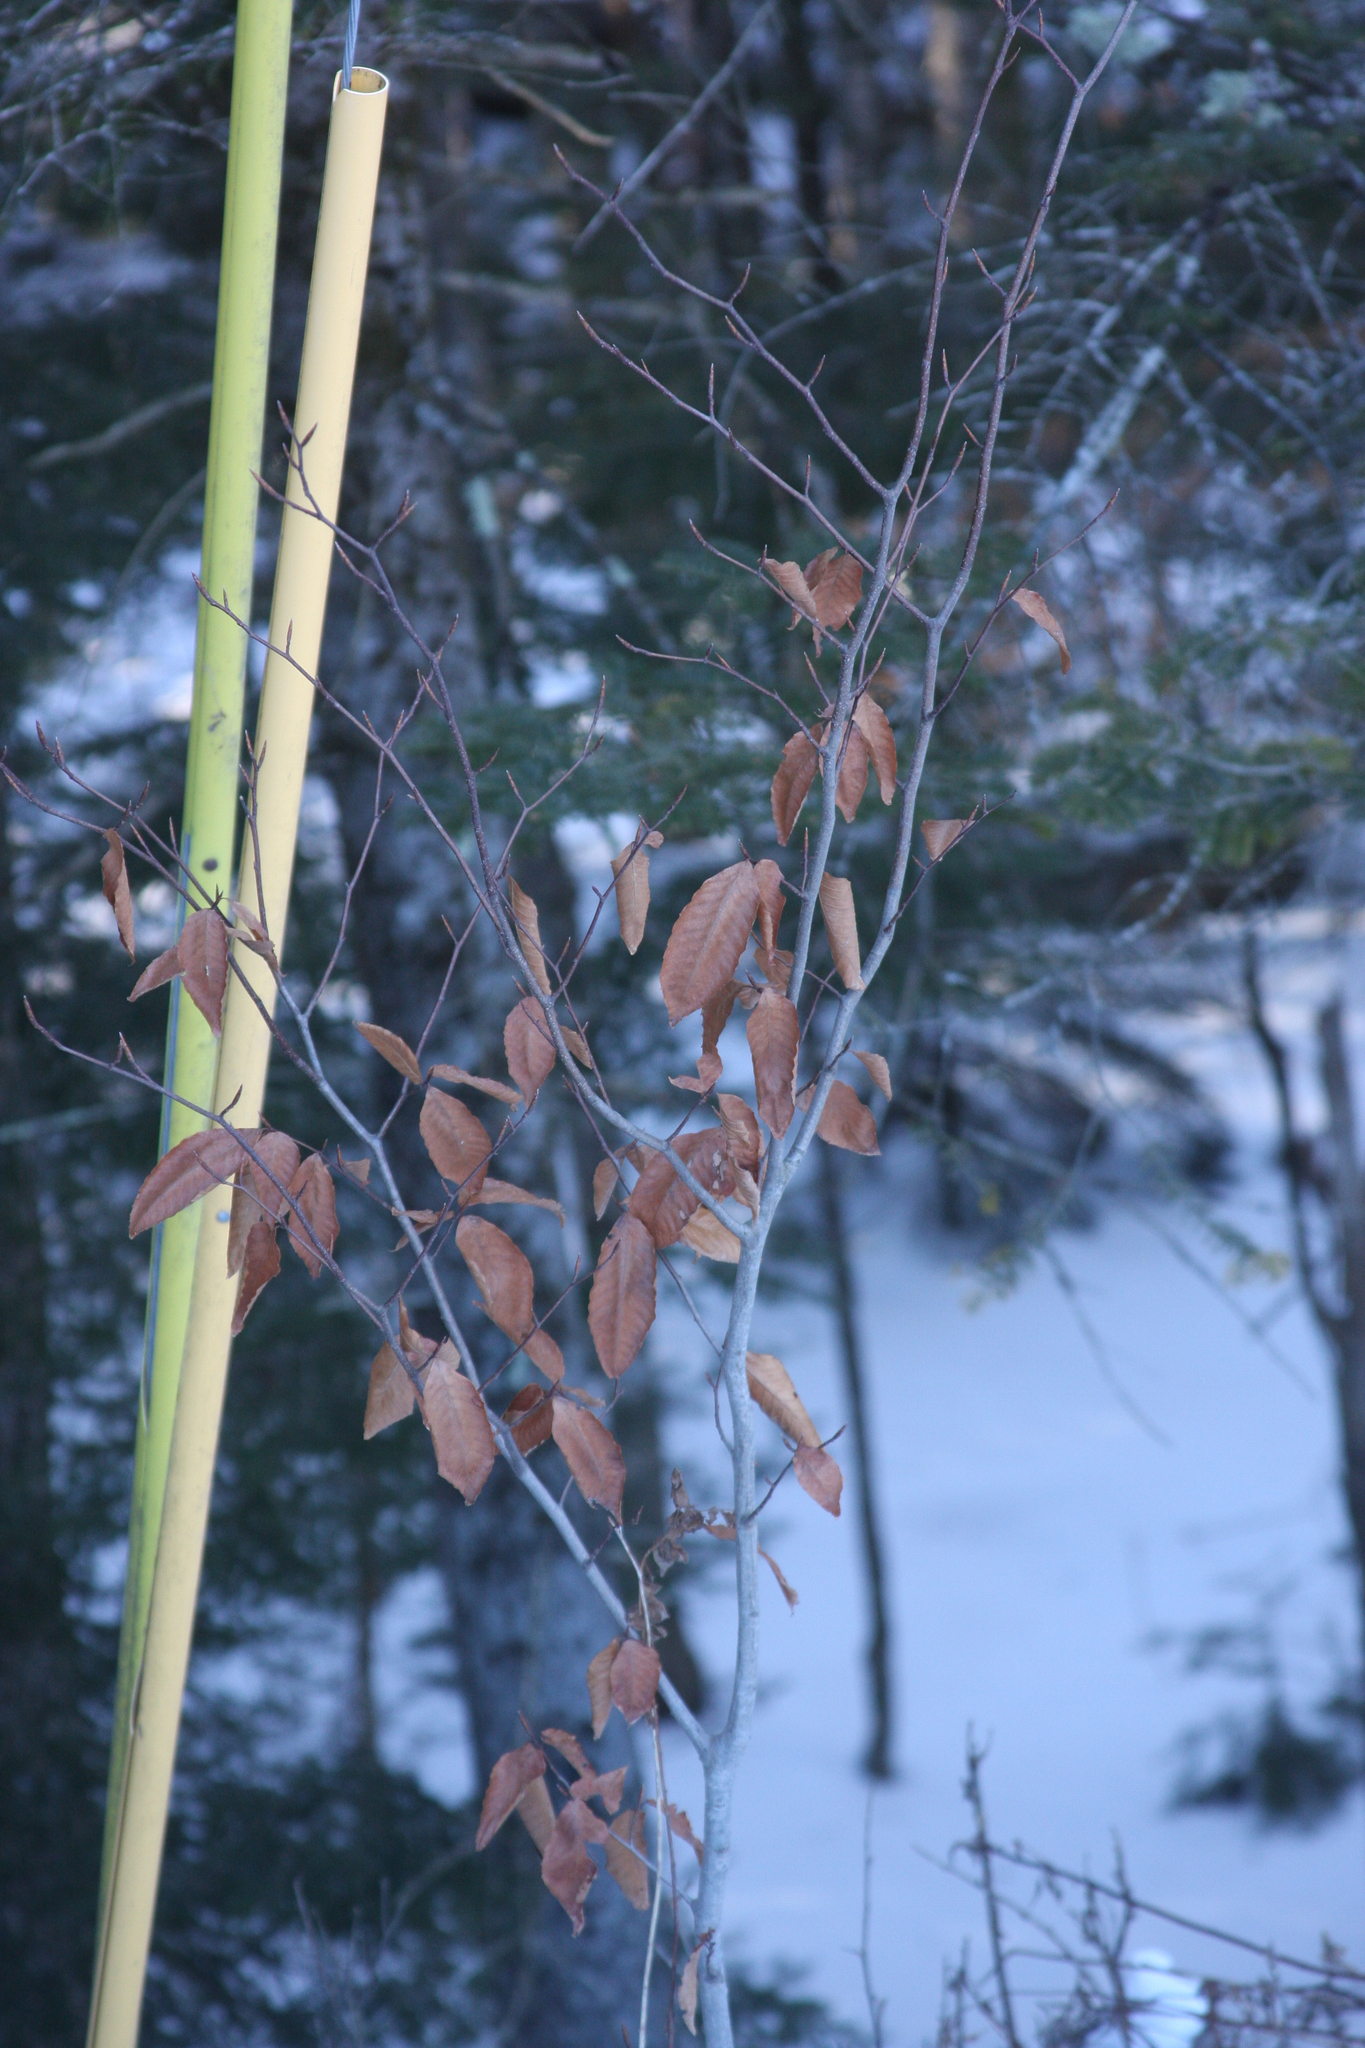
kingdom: Plantae
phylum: Tracheophyta
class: Magnoliopsida
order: Fagales
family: Fagaceae
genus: Fagus
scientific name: Fagus grandifolia
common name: American beech
